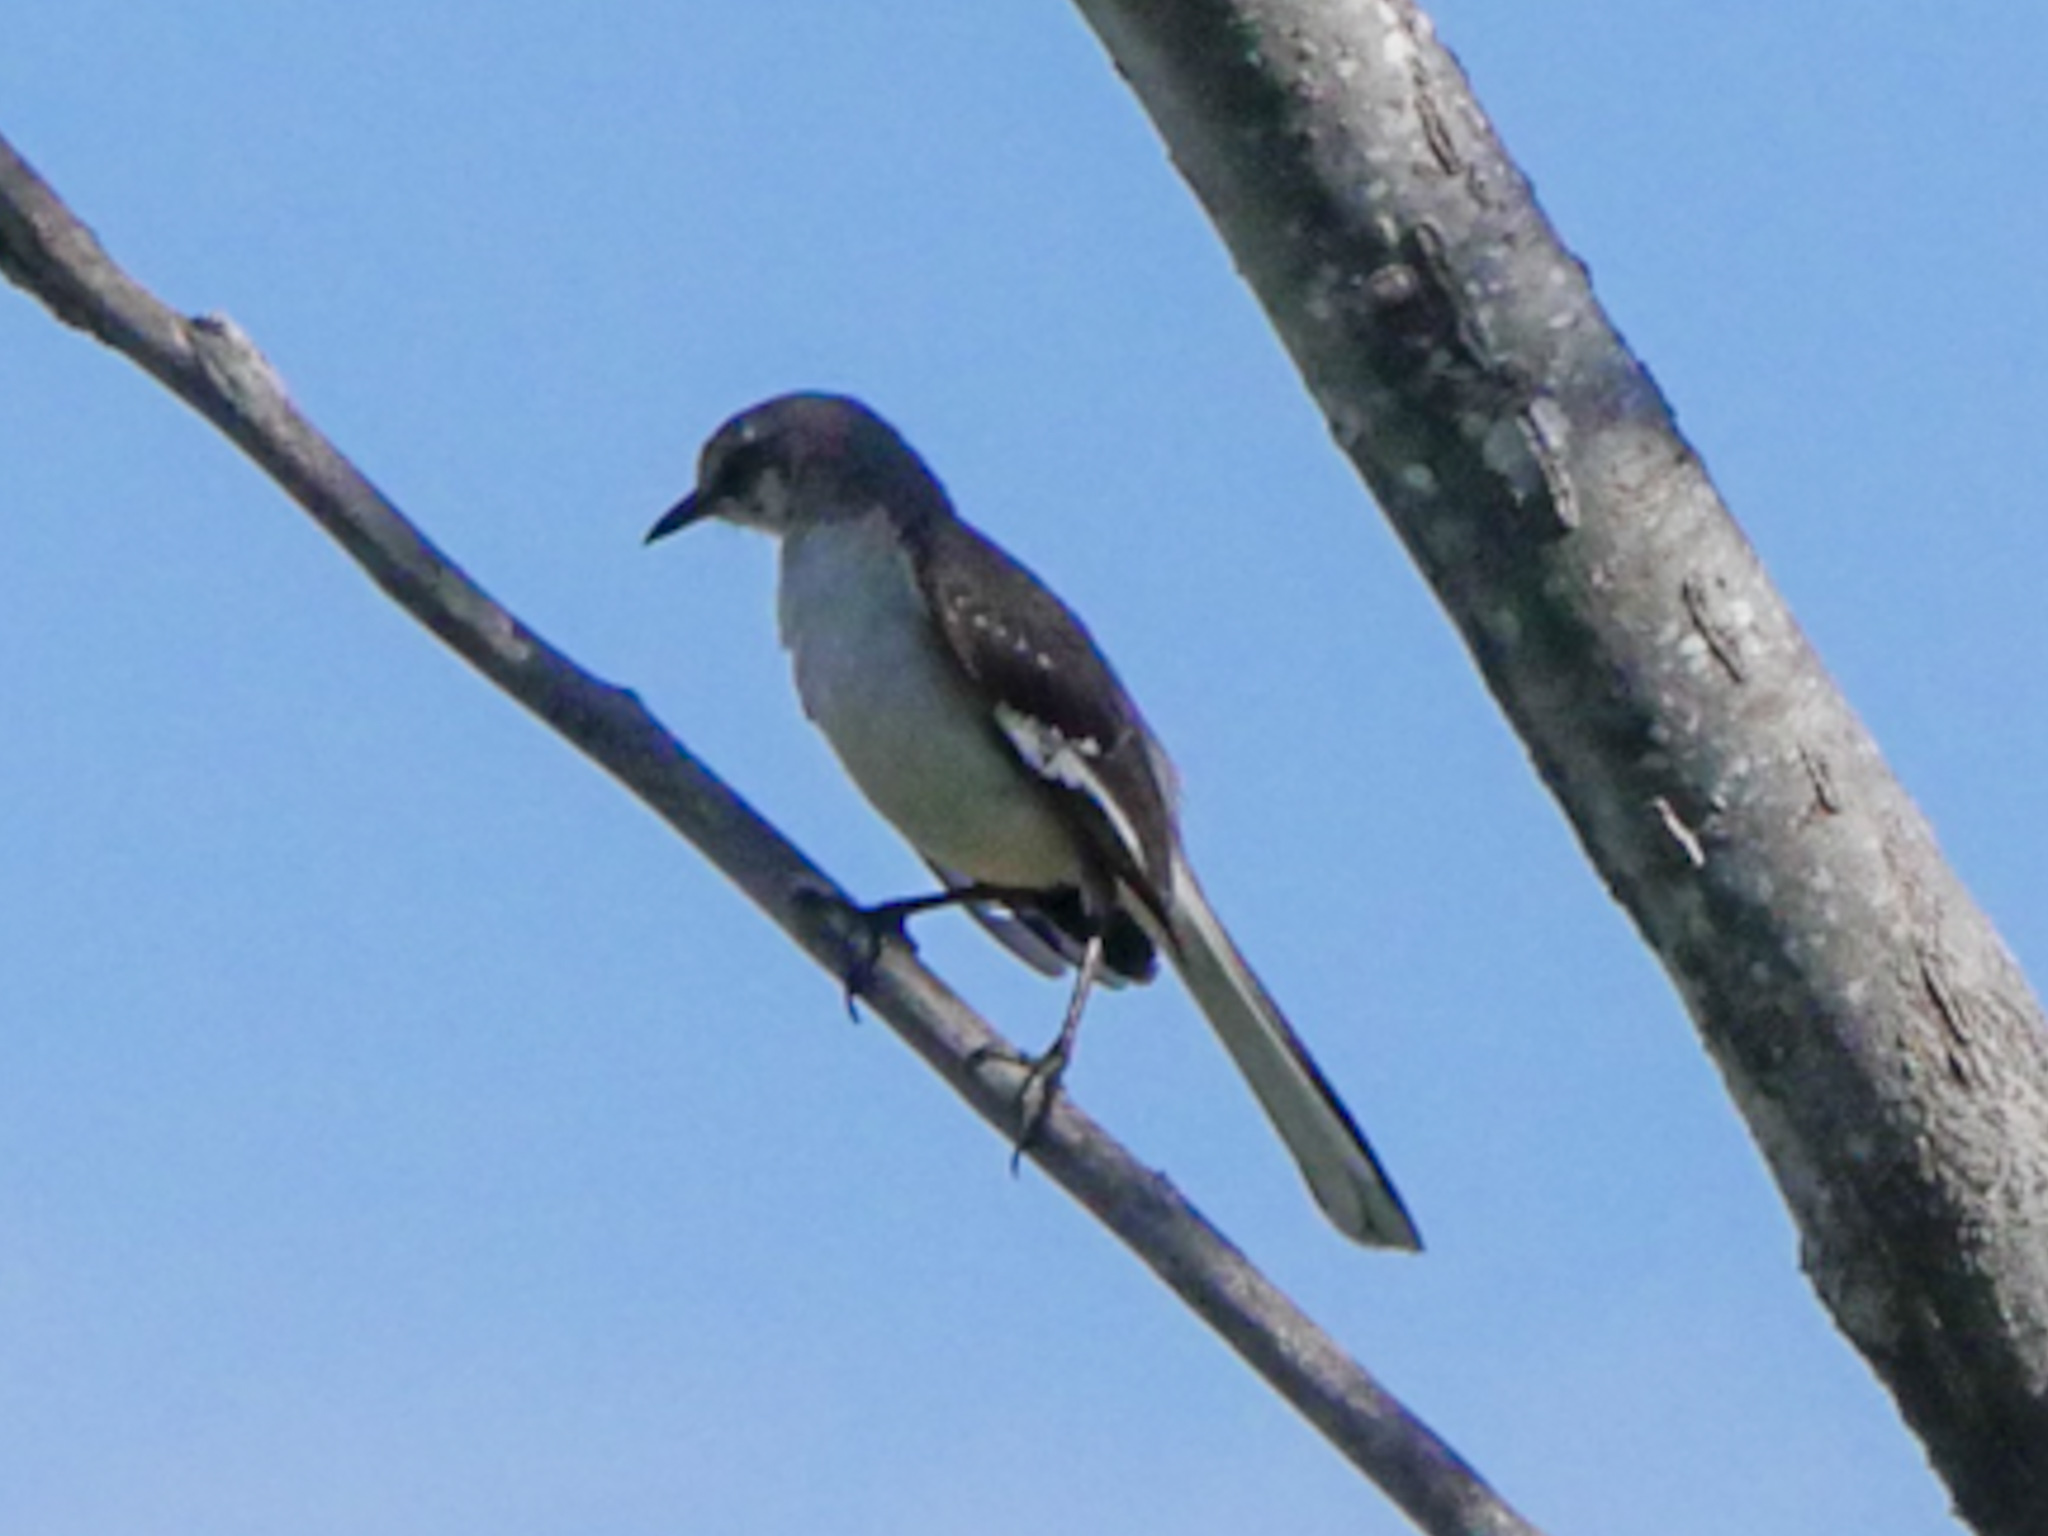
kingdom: Animalia
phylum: Chordata
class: Aves
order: Passeriformes
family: Mimidae
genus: Mimus
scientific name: Mimus polyglottos
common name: Northern mockingbird
